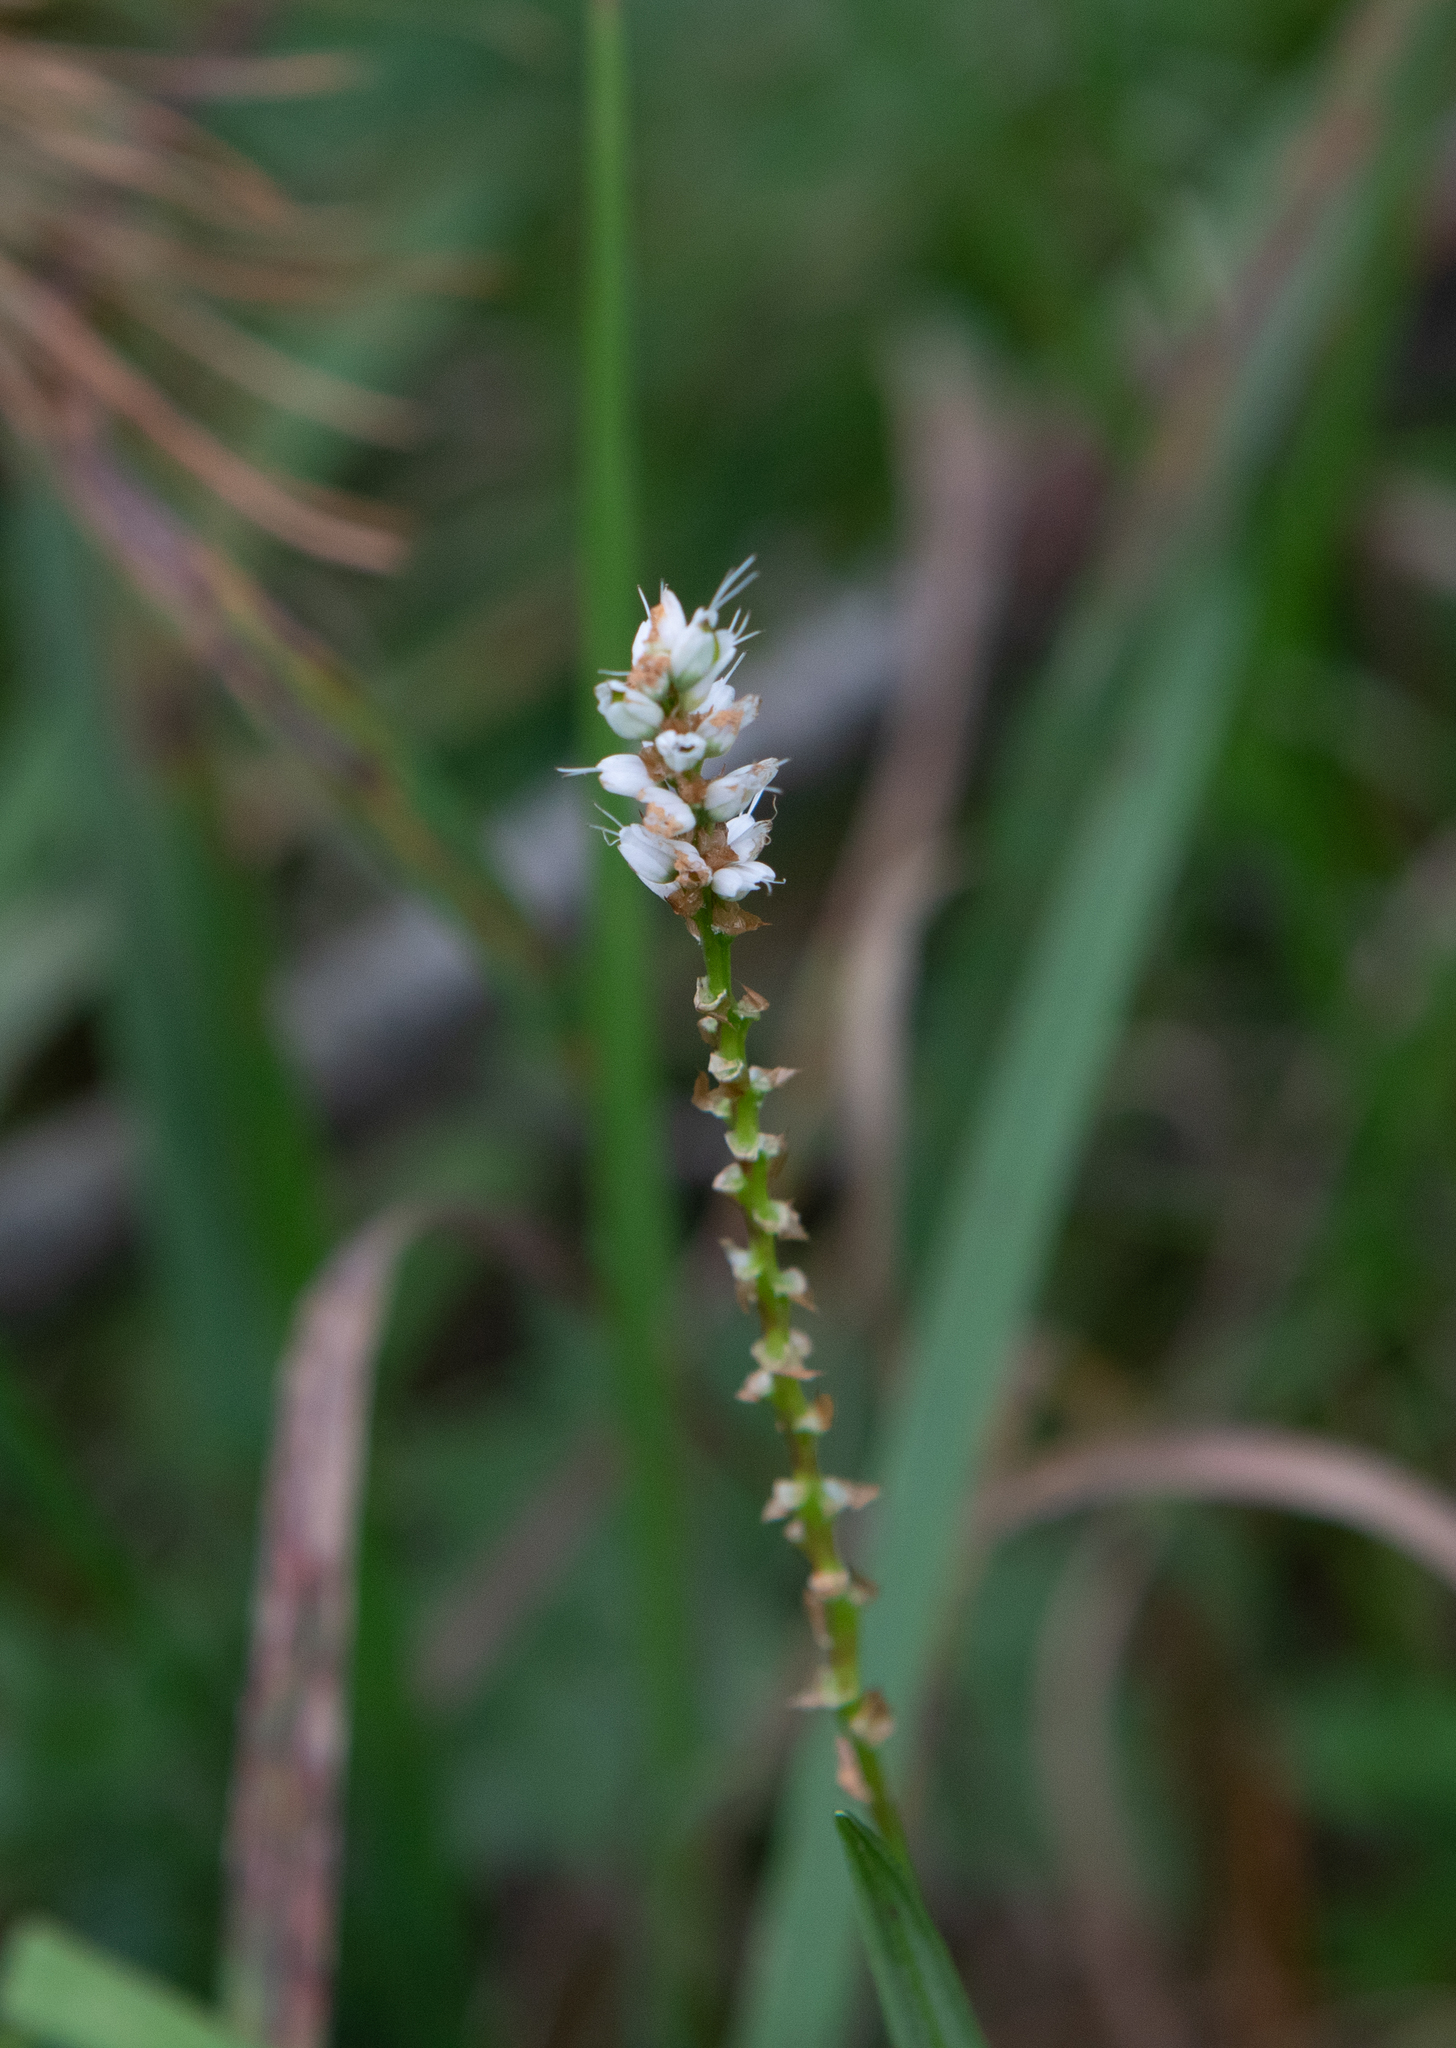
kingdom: Plantae
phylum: Tracheophyta
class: Magnoliopsida
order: Caryophyllales
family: Polygonaceae
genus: Bistorta
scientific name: Bistorta vivipara
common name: Alpine bistort
